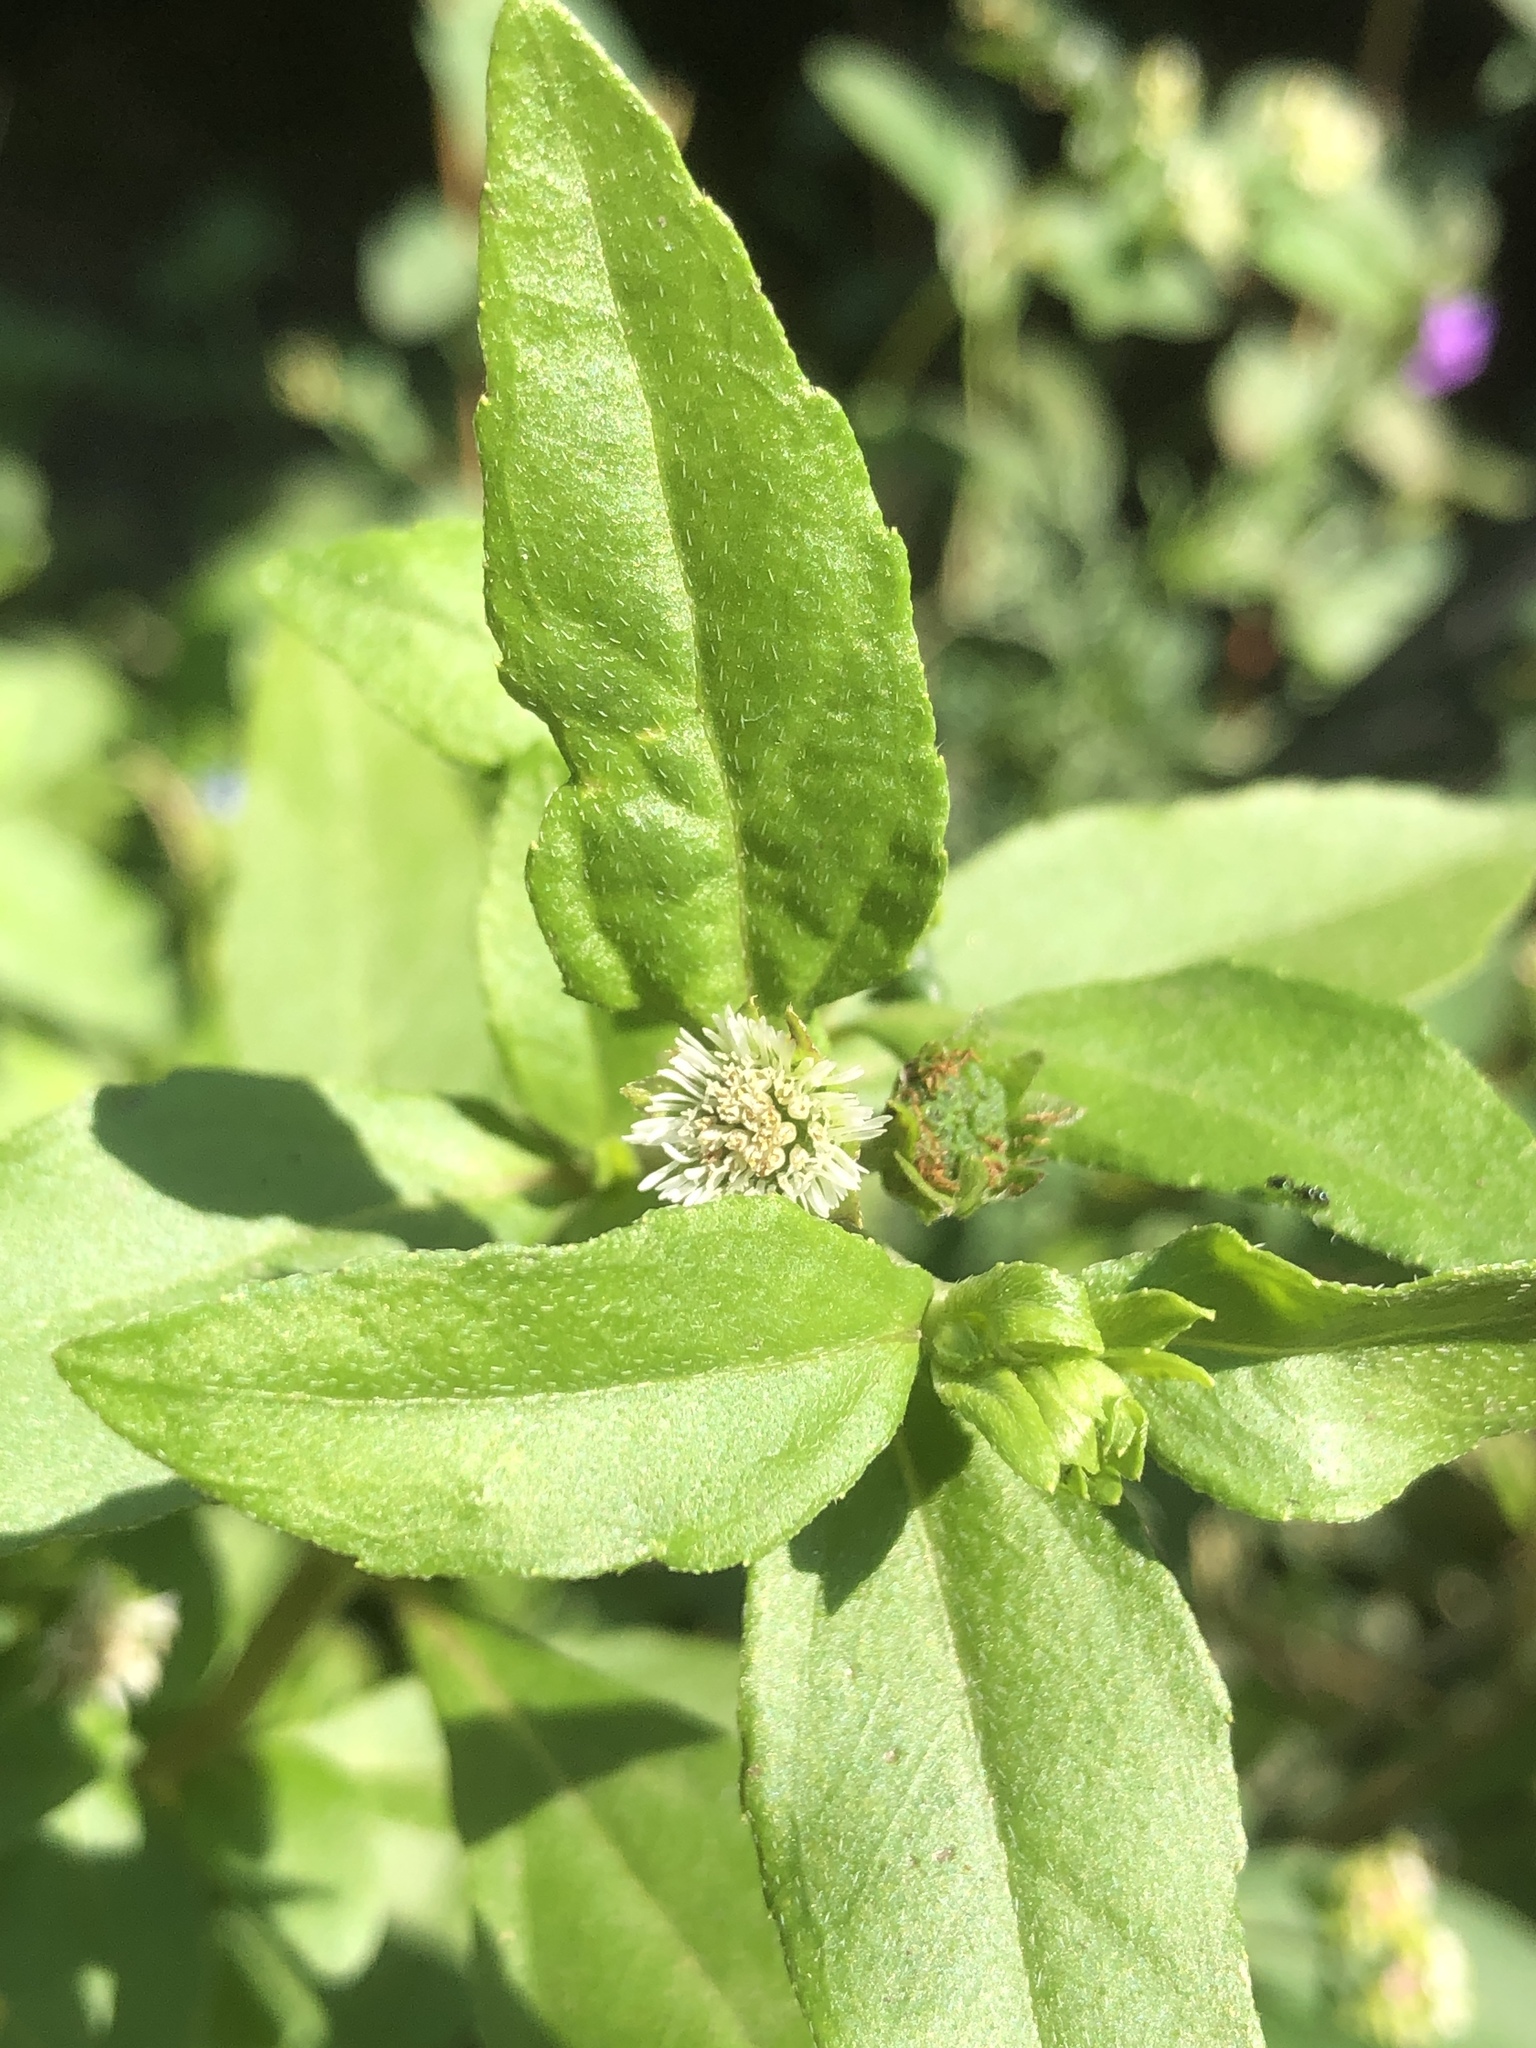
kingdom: Plantae
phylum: Tracheophyta
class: Magnoliopsida
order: Asterales
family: Asteraceae
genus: Eclipta
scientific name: Eclipta prostrata
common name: False daisy
